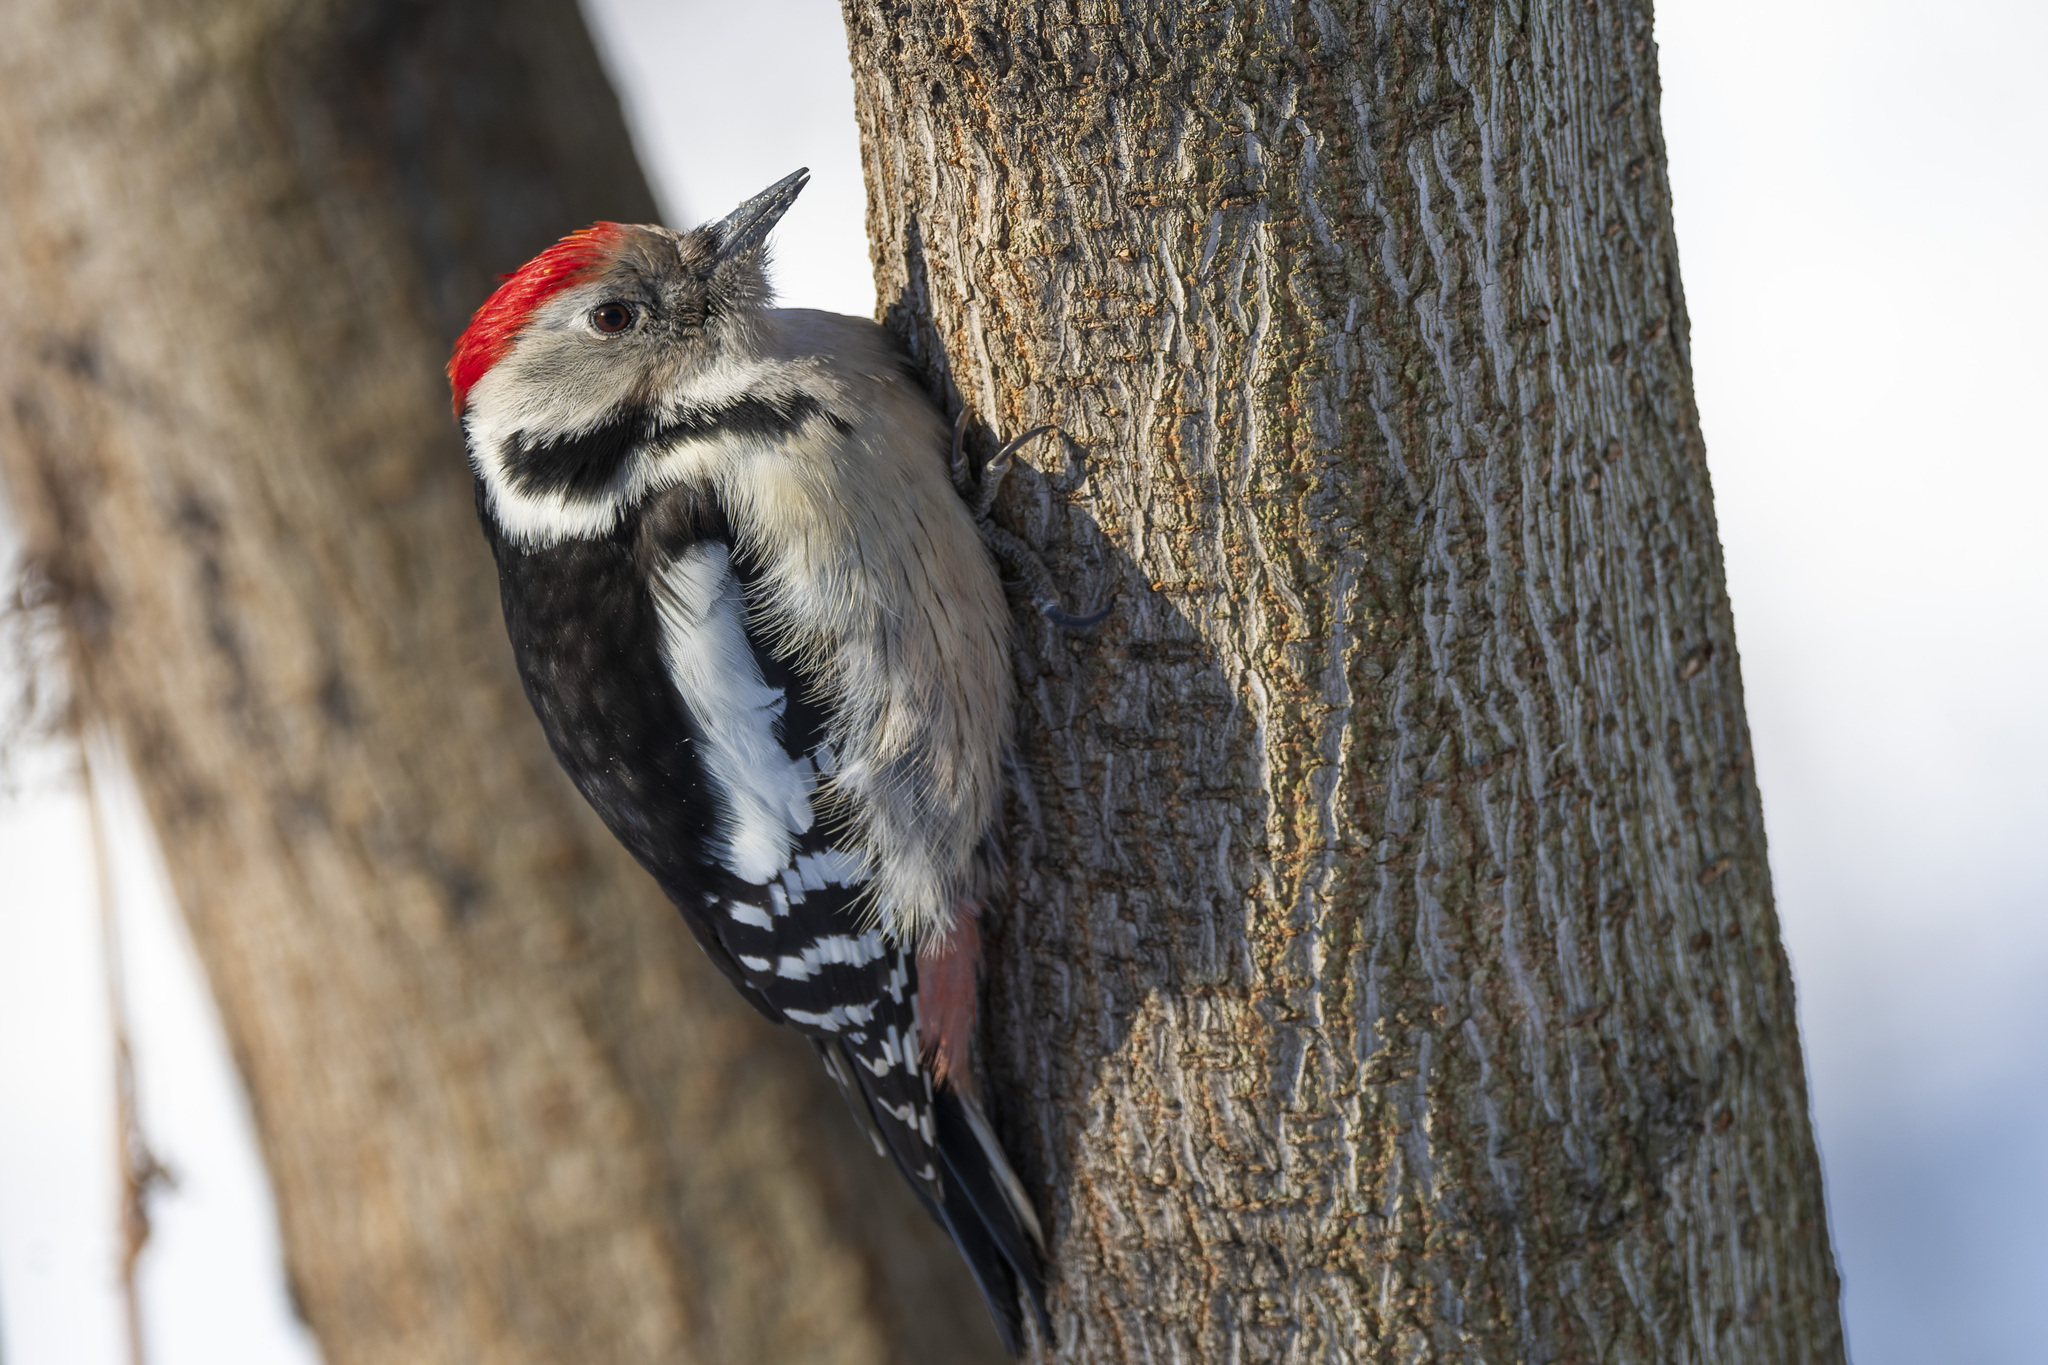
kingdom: Animalia
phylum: Chordata
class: Aves
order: Piciformes
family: Picidae
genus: Dendrocoptes
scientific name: Dendrocoptes medius
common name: Middle spotted woodpecker
